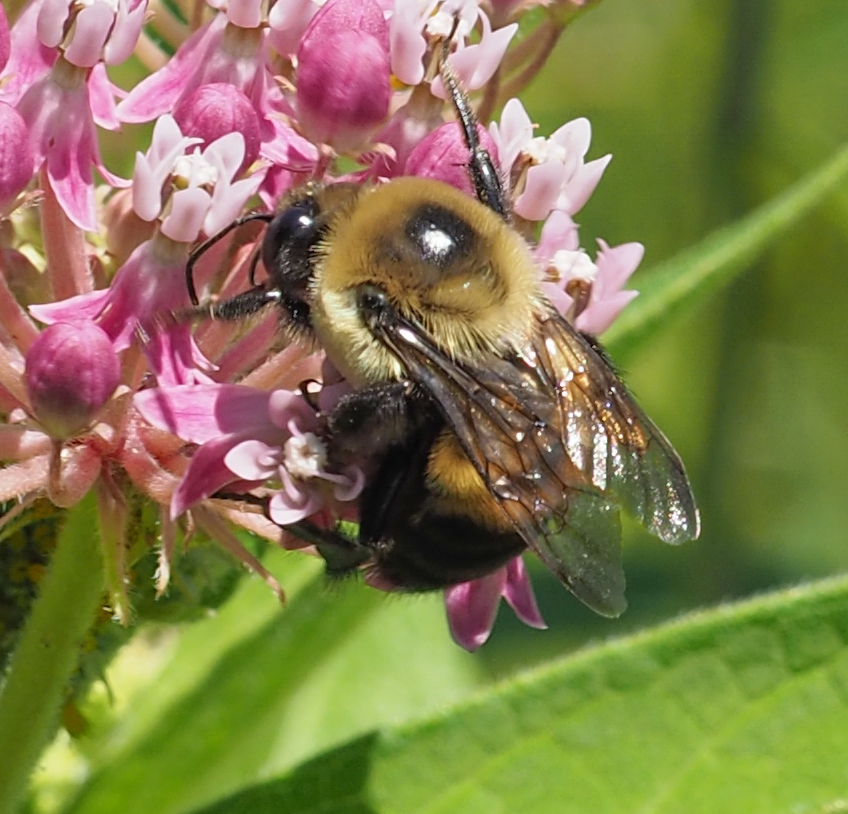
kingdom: Animalia
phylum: Arthropoda
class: Insecta
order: Hymenoptera
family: Apidae
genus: Bombus
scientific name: Bombus griseocollis
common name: Brown-belted bumble bee
